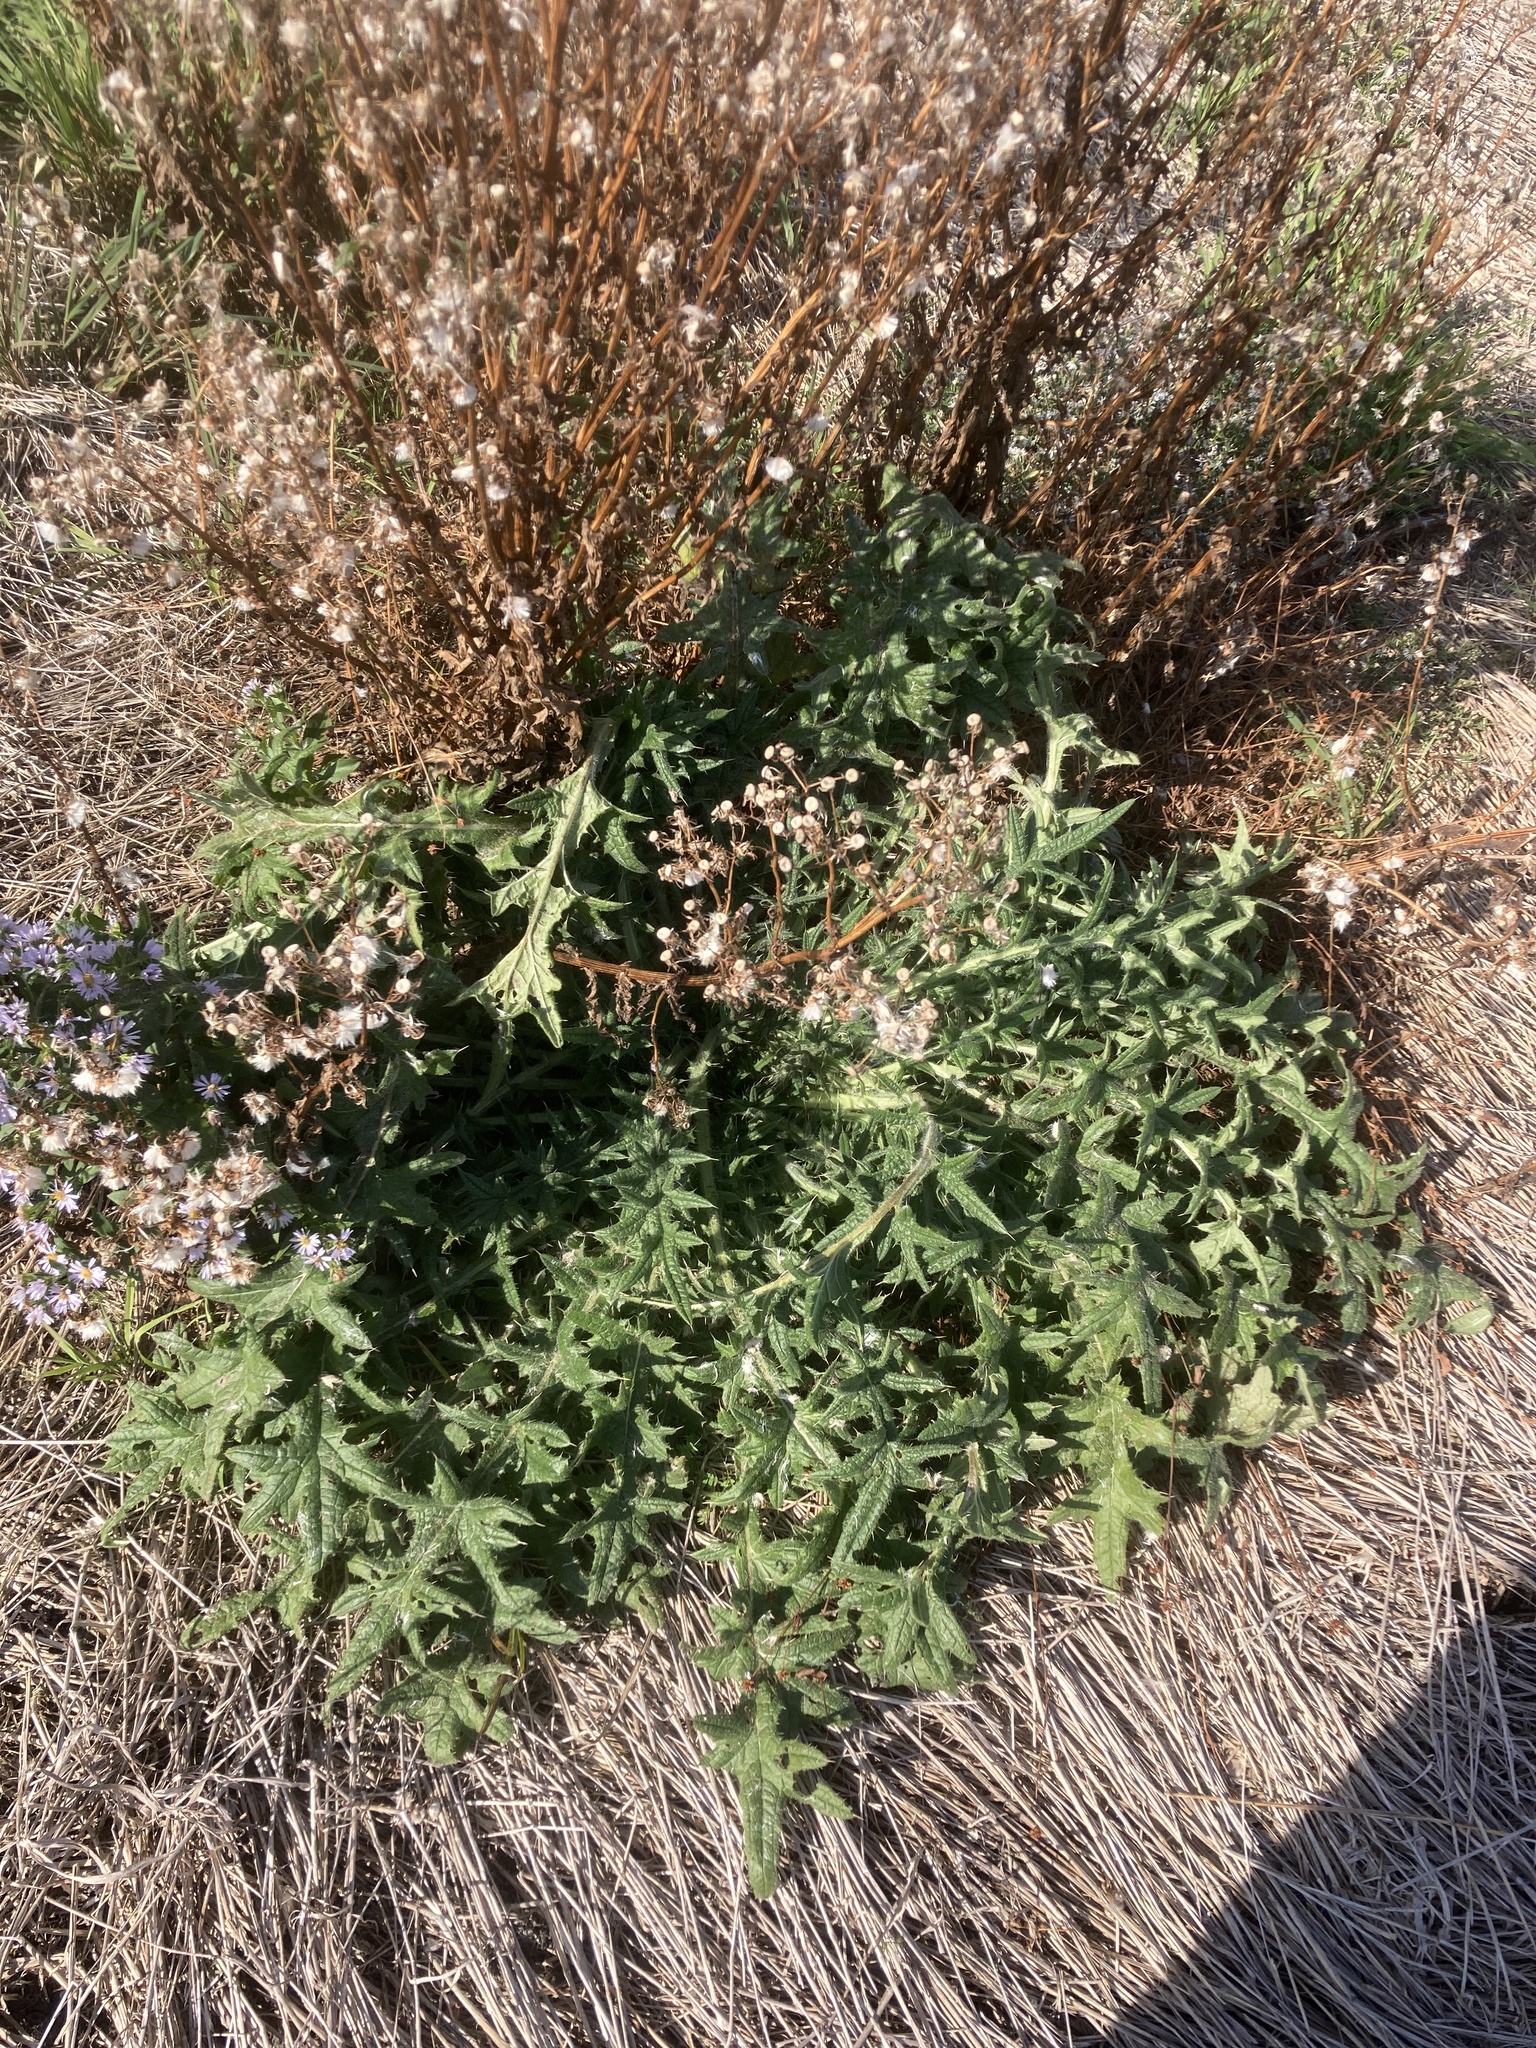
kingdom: Plantae
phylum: Tracheophyta
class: Magnoliopsida
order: Asterales
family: Asteraceae
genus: Cirsium
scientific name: Cirsium vulgare
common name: Bull thistle
